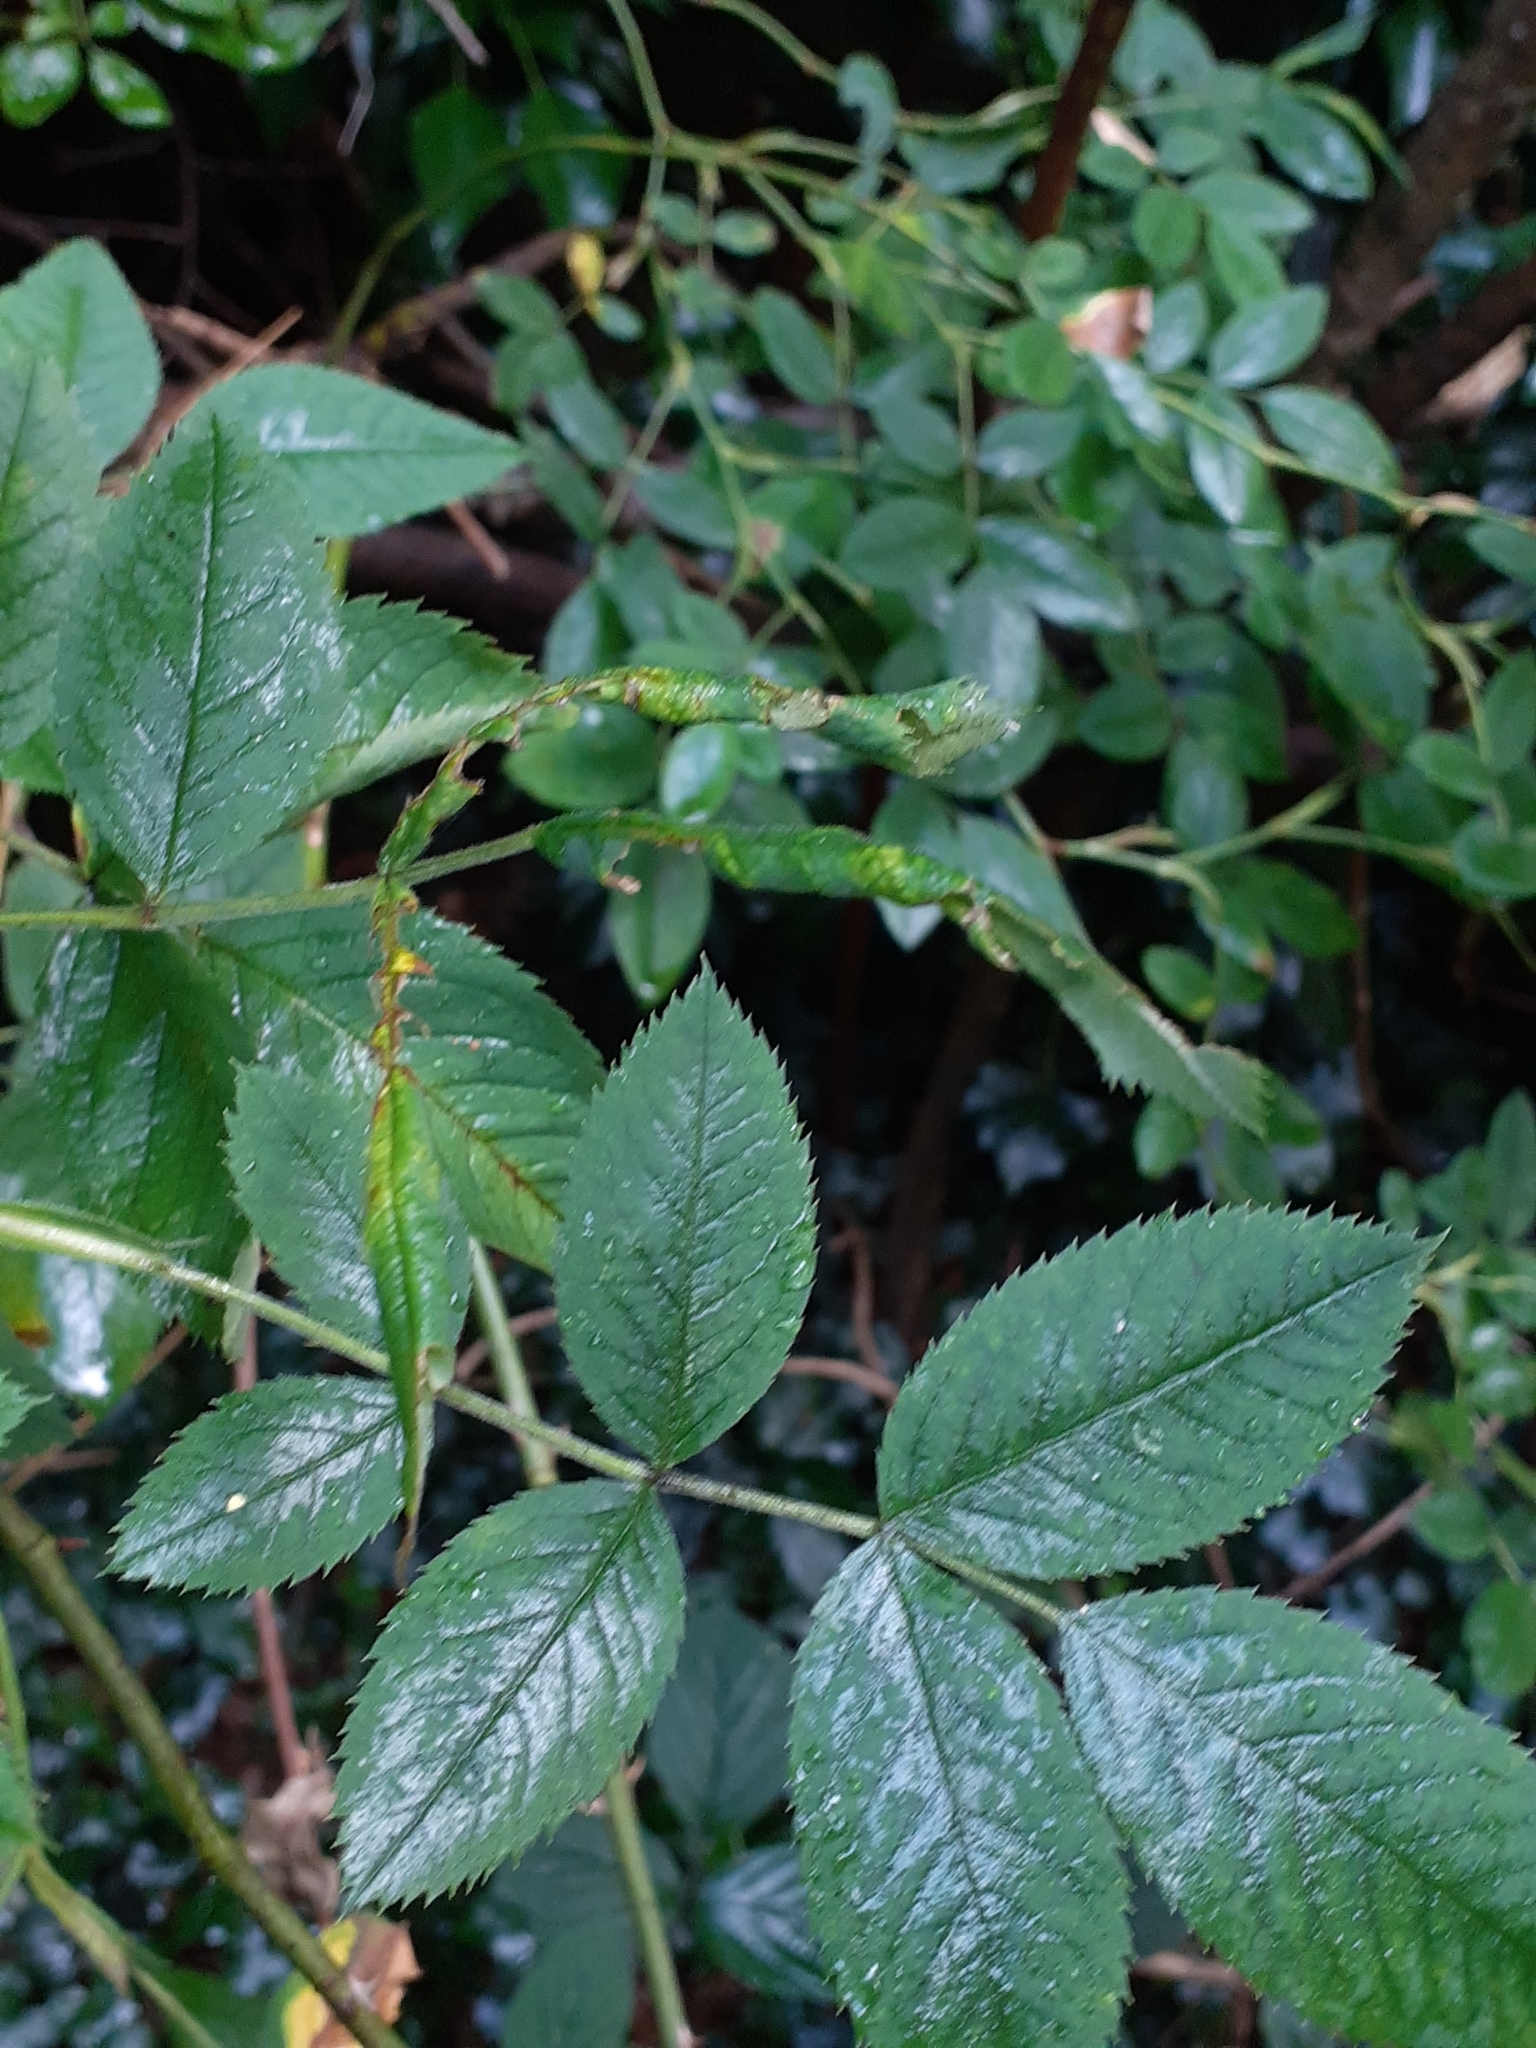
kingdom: Animalia
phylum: Arthropoda
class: Insecta
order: Hymenoptera
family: Tenthredinidae
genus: Blennocampa
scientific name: Blennocampa phyllocolpa
